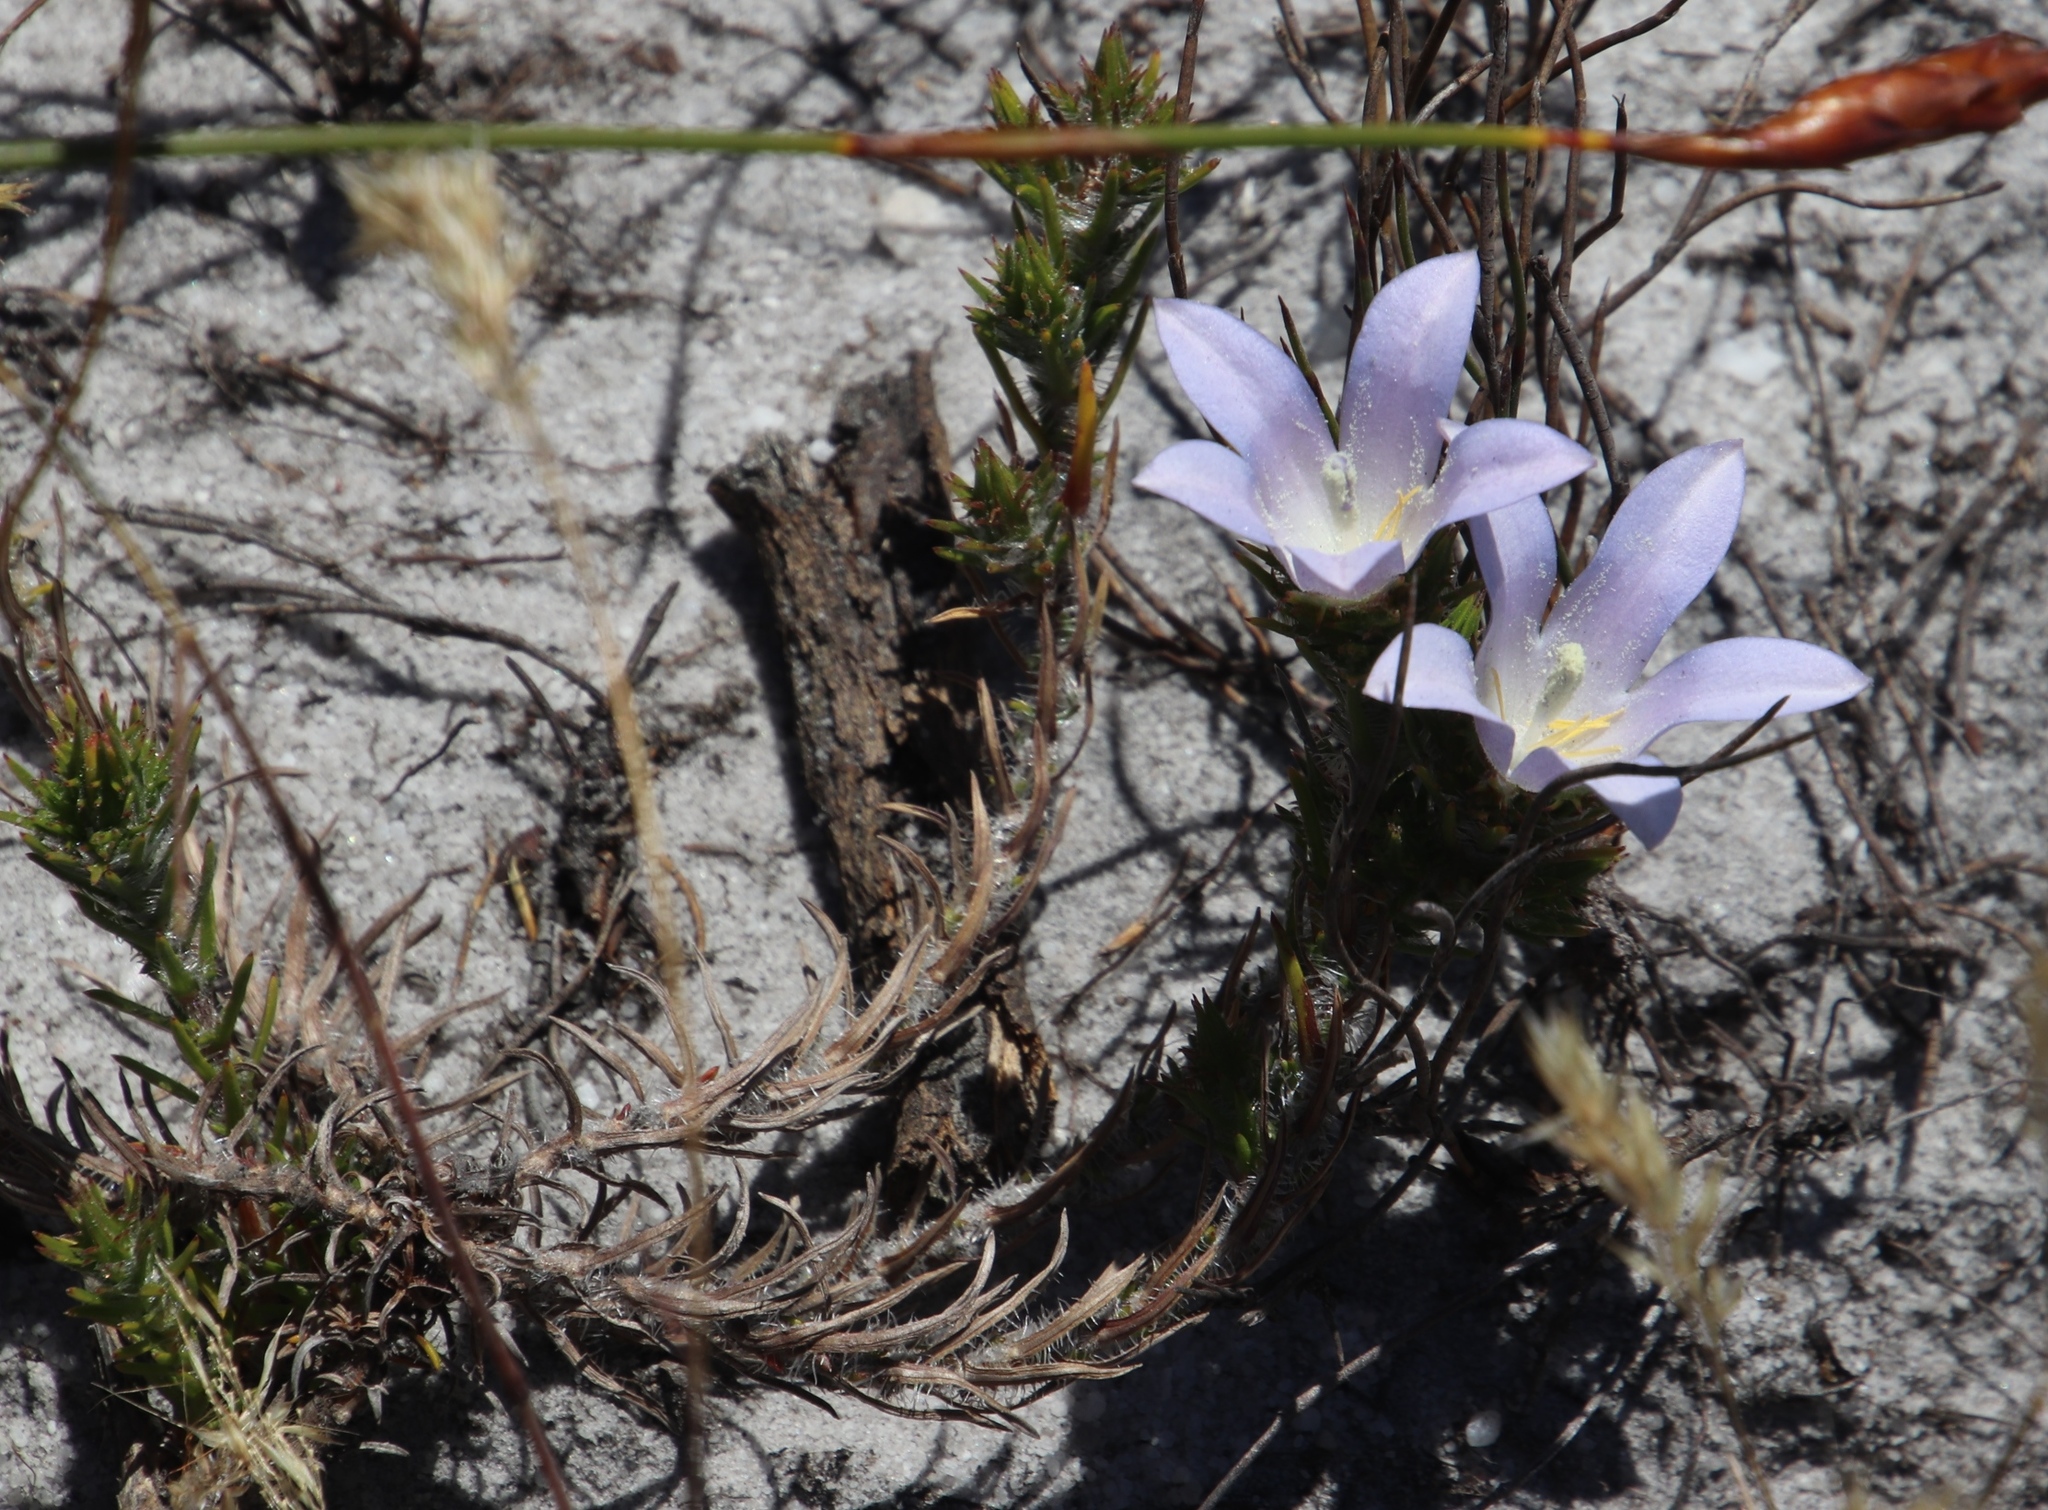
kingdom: Plantae
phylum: Tracheophyta
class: Magnoliopsida
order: Asterales
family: Campanulaceae
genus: Roella
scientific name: Roella prostrata
